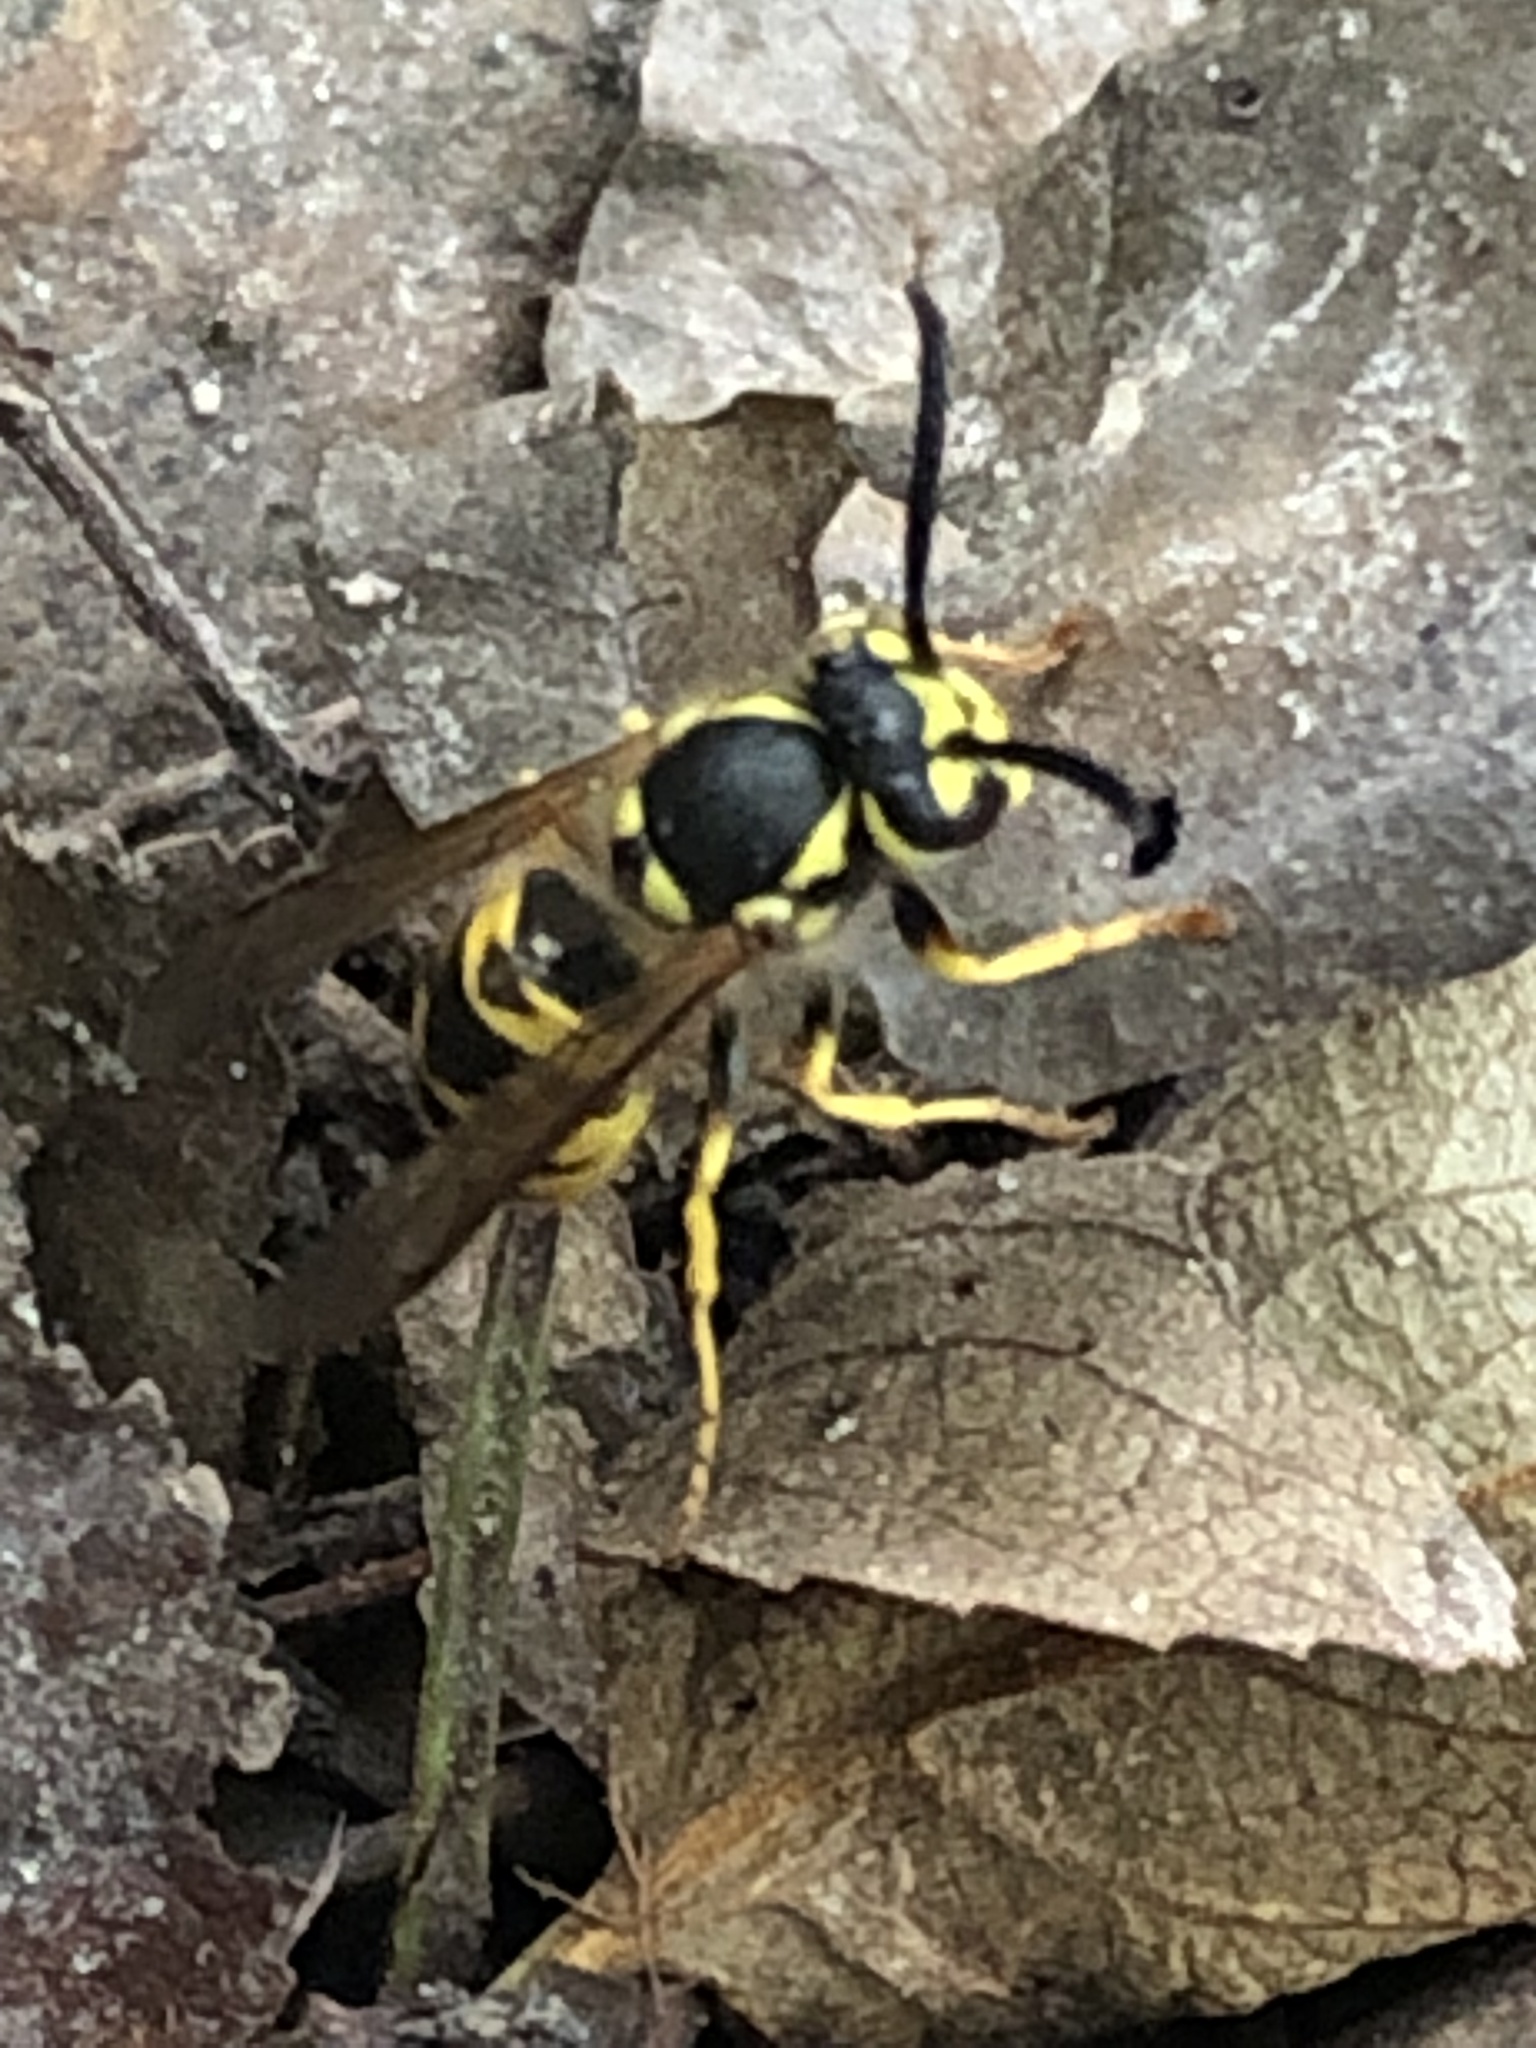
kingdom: Animalia
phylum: Arthropoda
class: Insecta
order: Hymenoptera
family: Vespidae
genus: Vespula
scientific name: Vespula germanica
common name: German wasp
